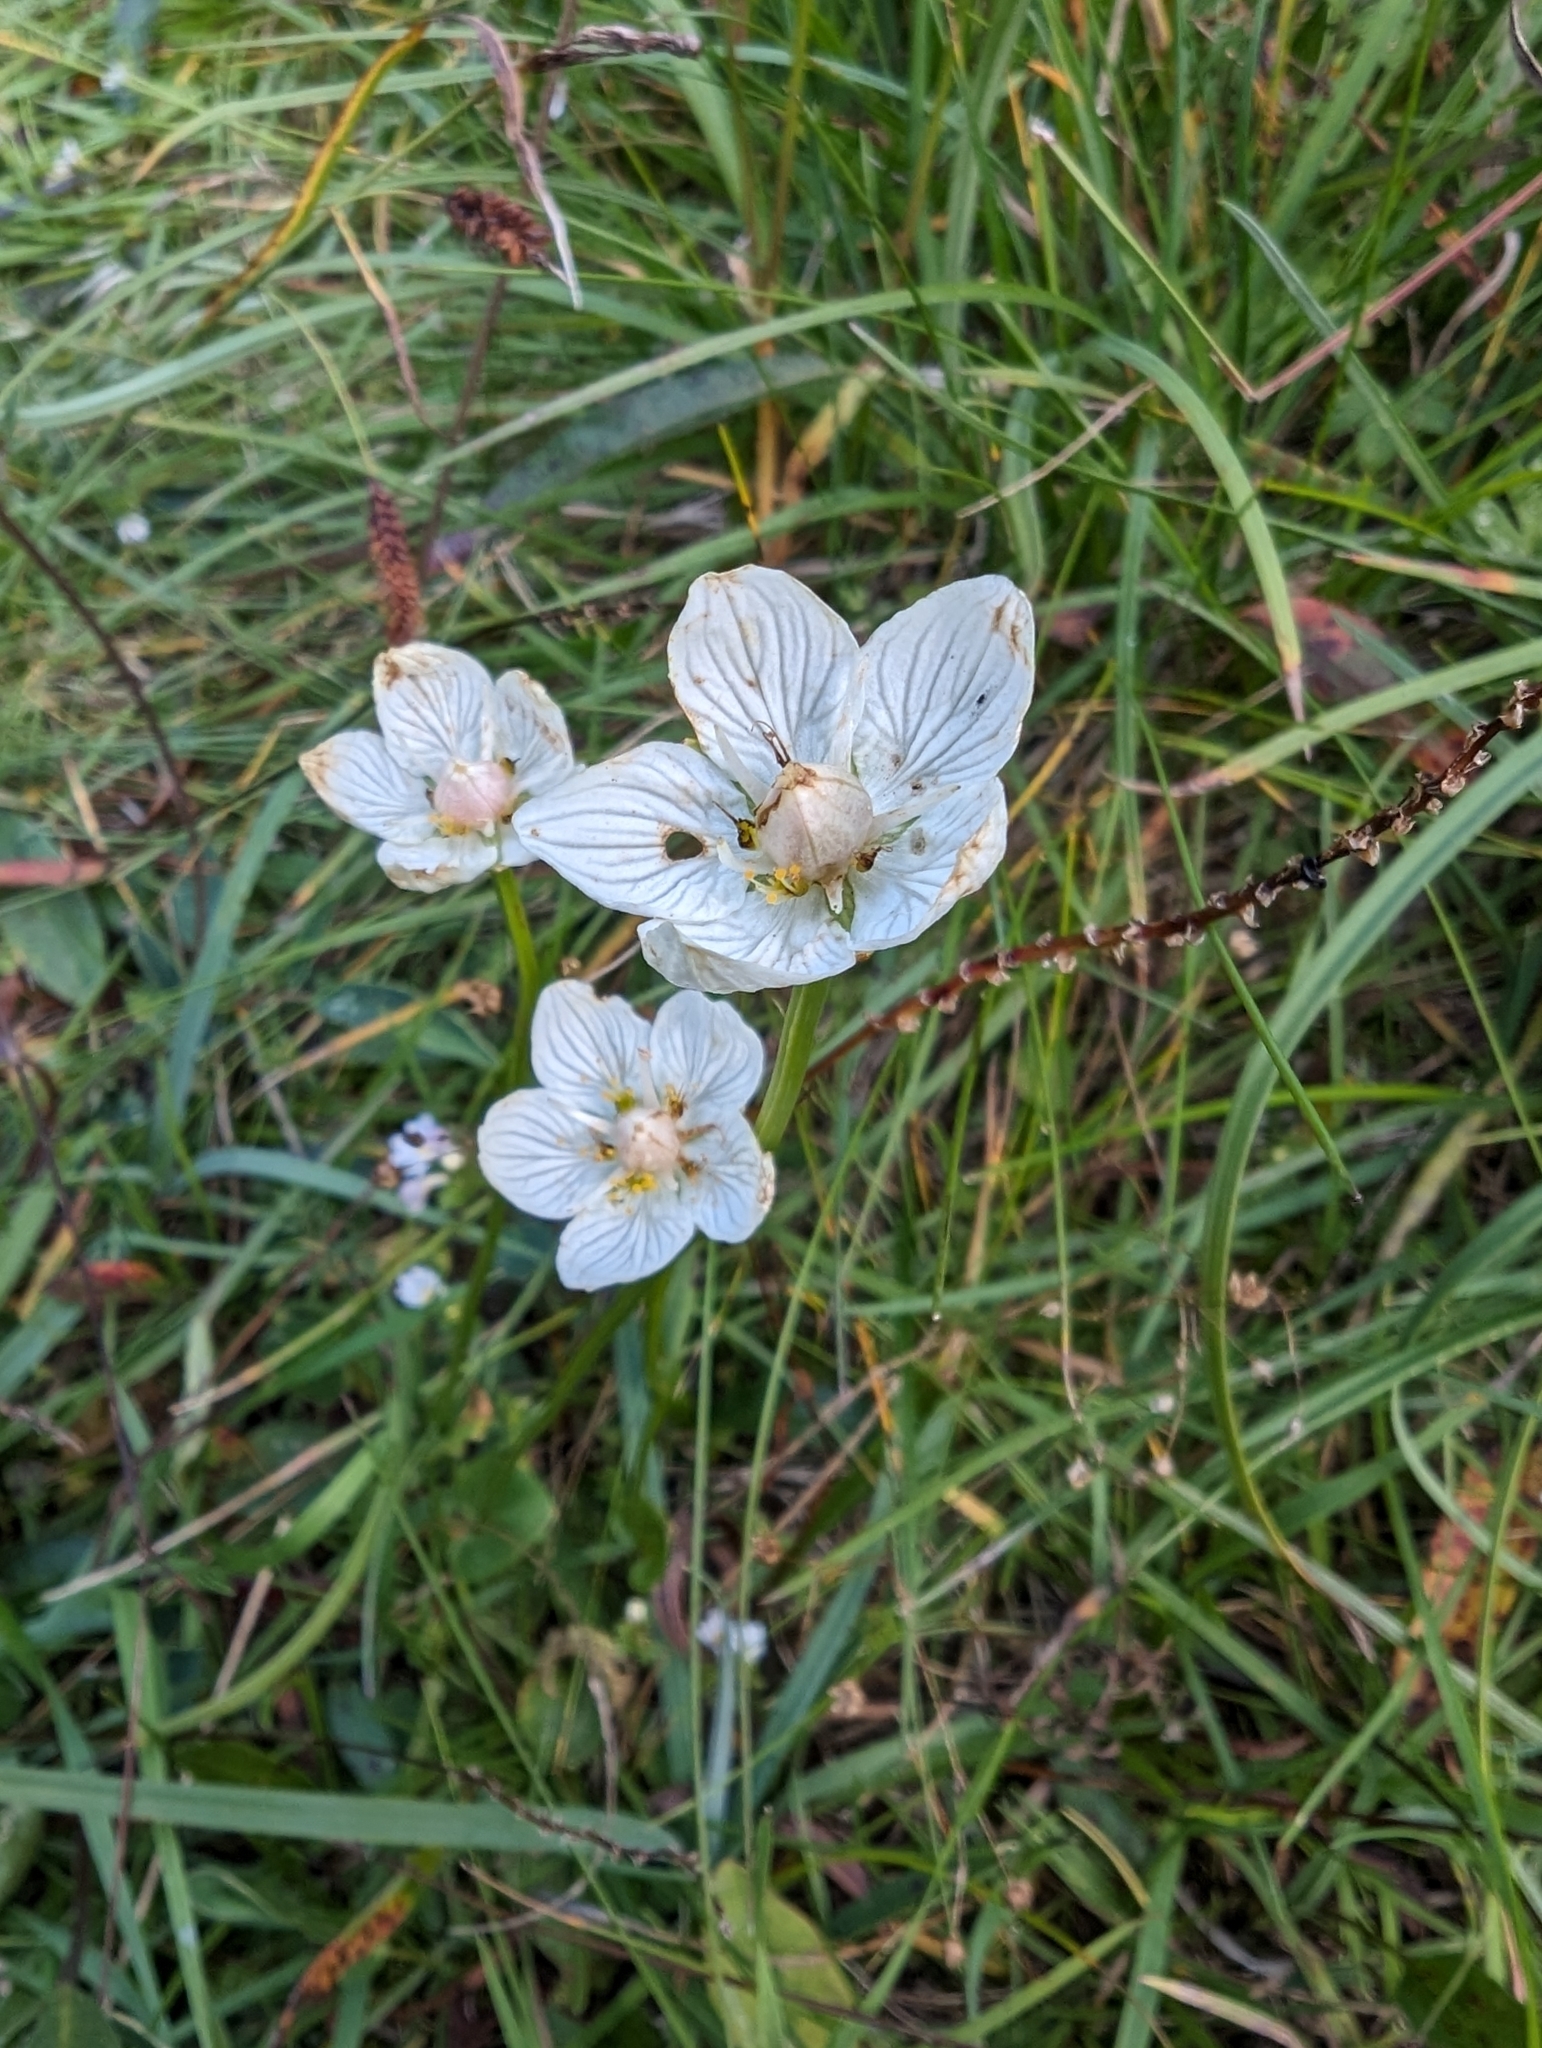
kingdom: Plantae
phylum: Tracheophyta
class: Magnoliopsida
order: Celastrales
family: Parnassiaceae
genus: Parnassia
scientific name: Parnassia palustris
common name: Grass-of-parnassus
